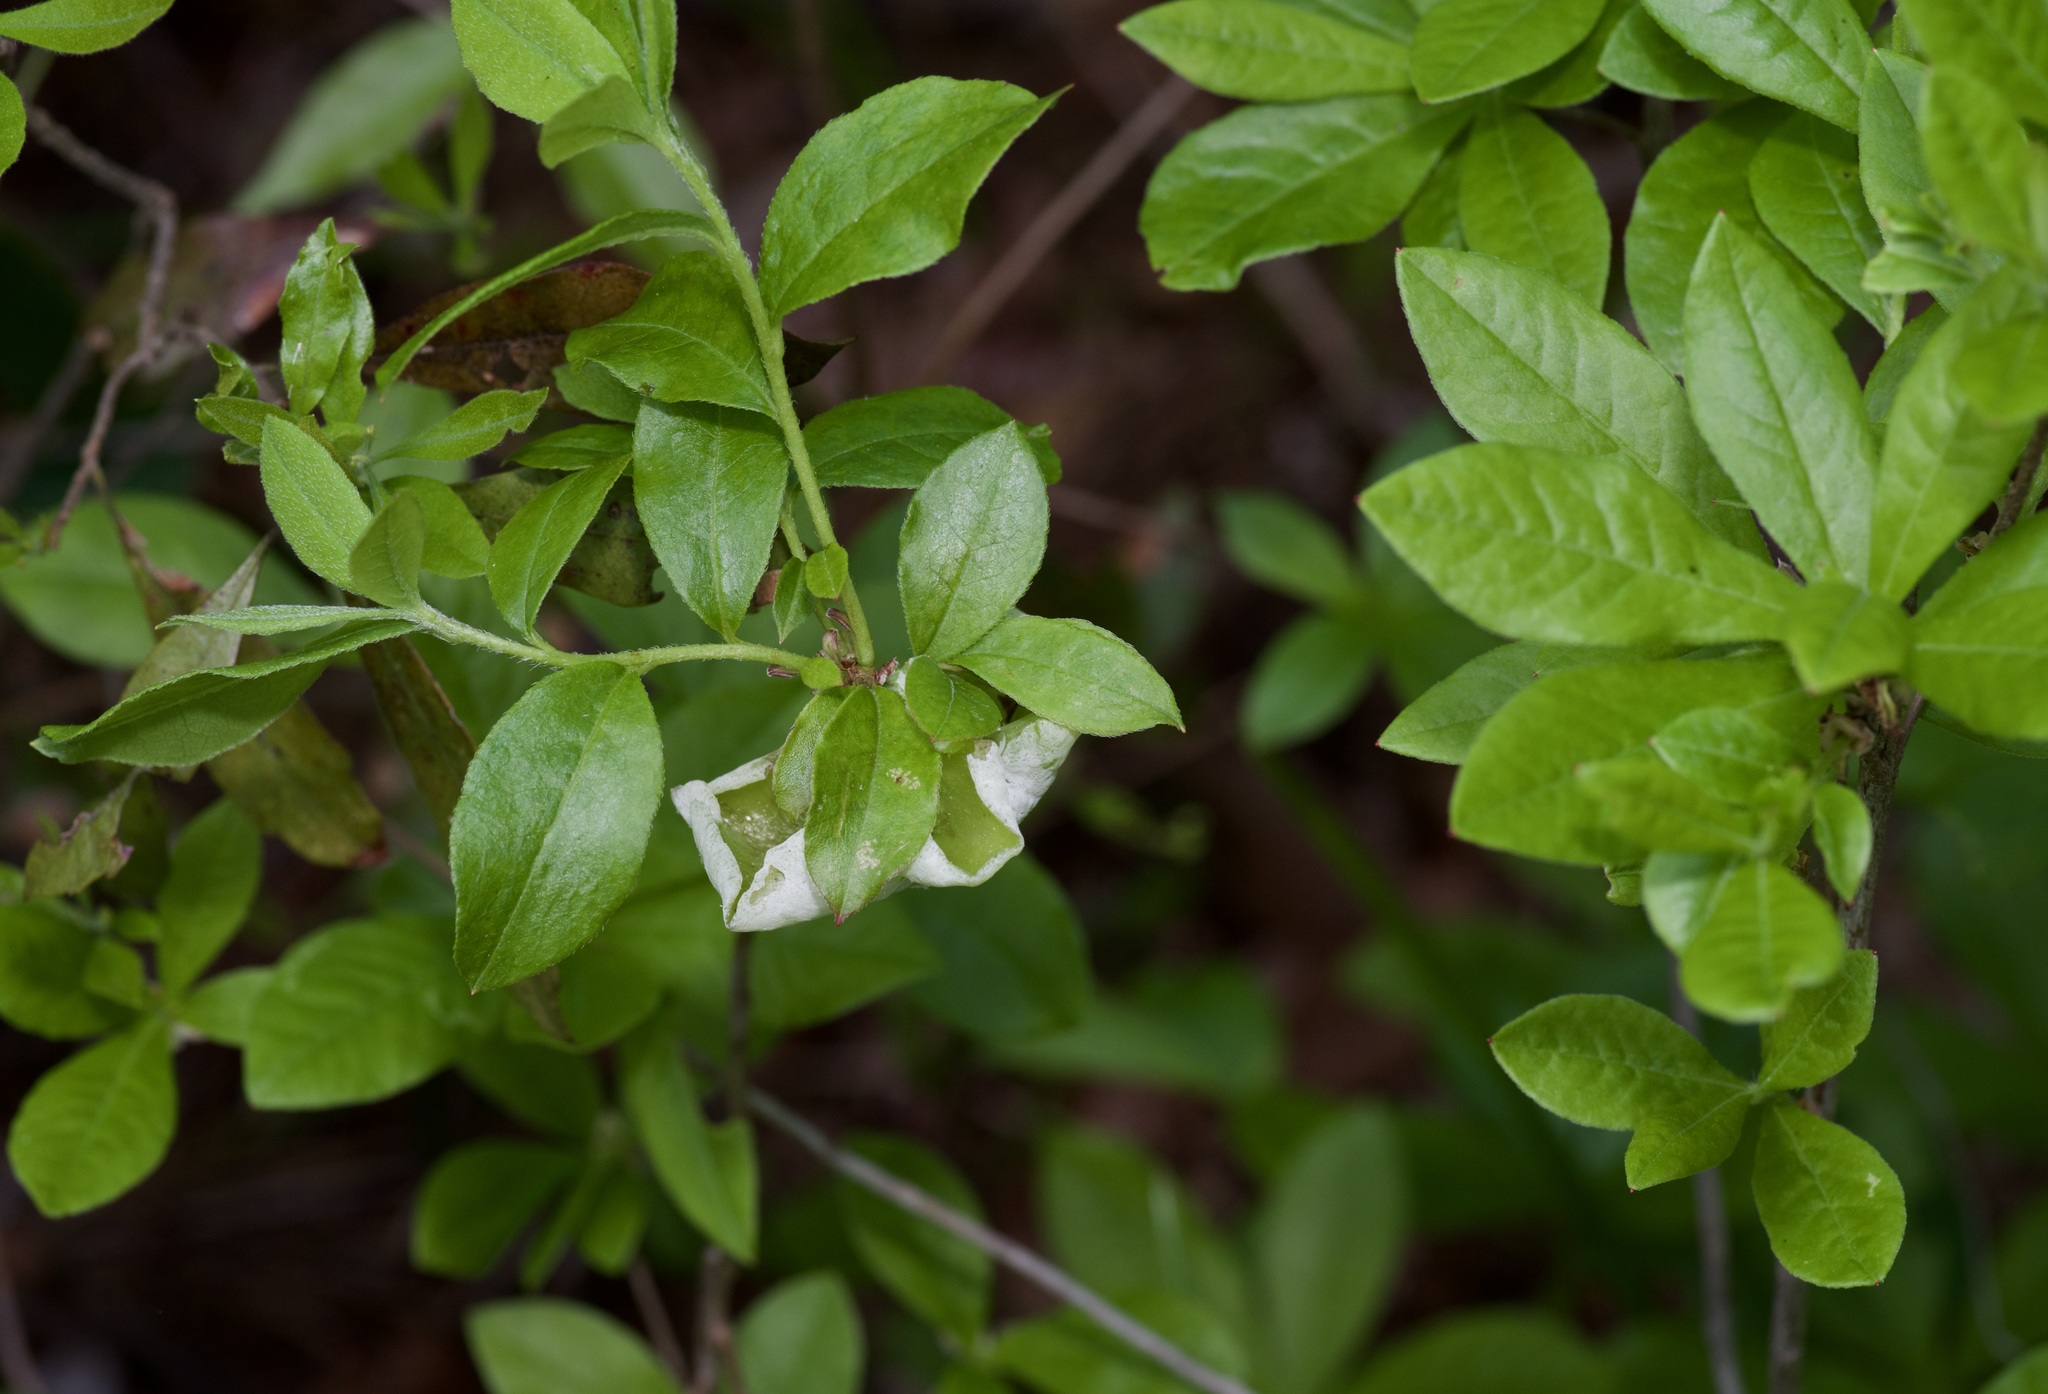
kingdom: Fungi
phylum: Basidiomycota
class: Exobasidiomycetes
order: Exobasidiales
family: Exobasidiaceae
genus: Exobasidium
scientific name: Exobasidium vaccinii
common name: Cowberry redleaf
